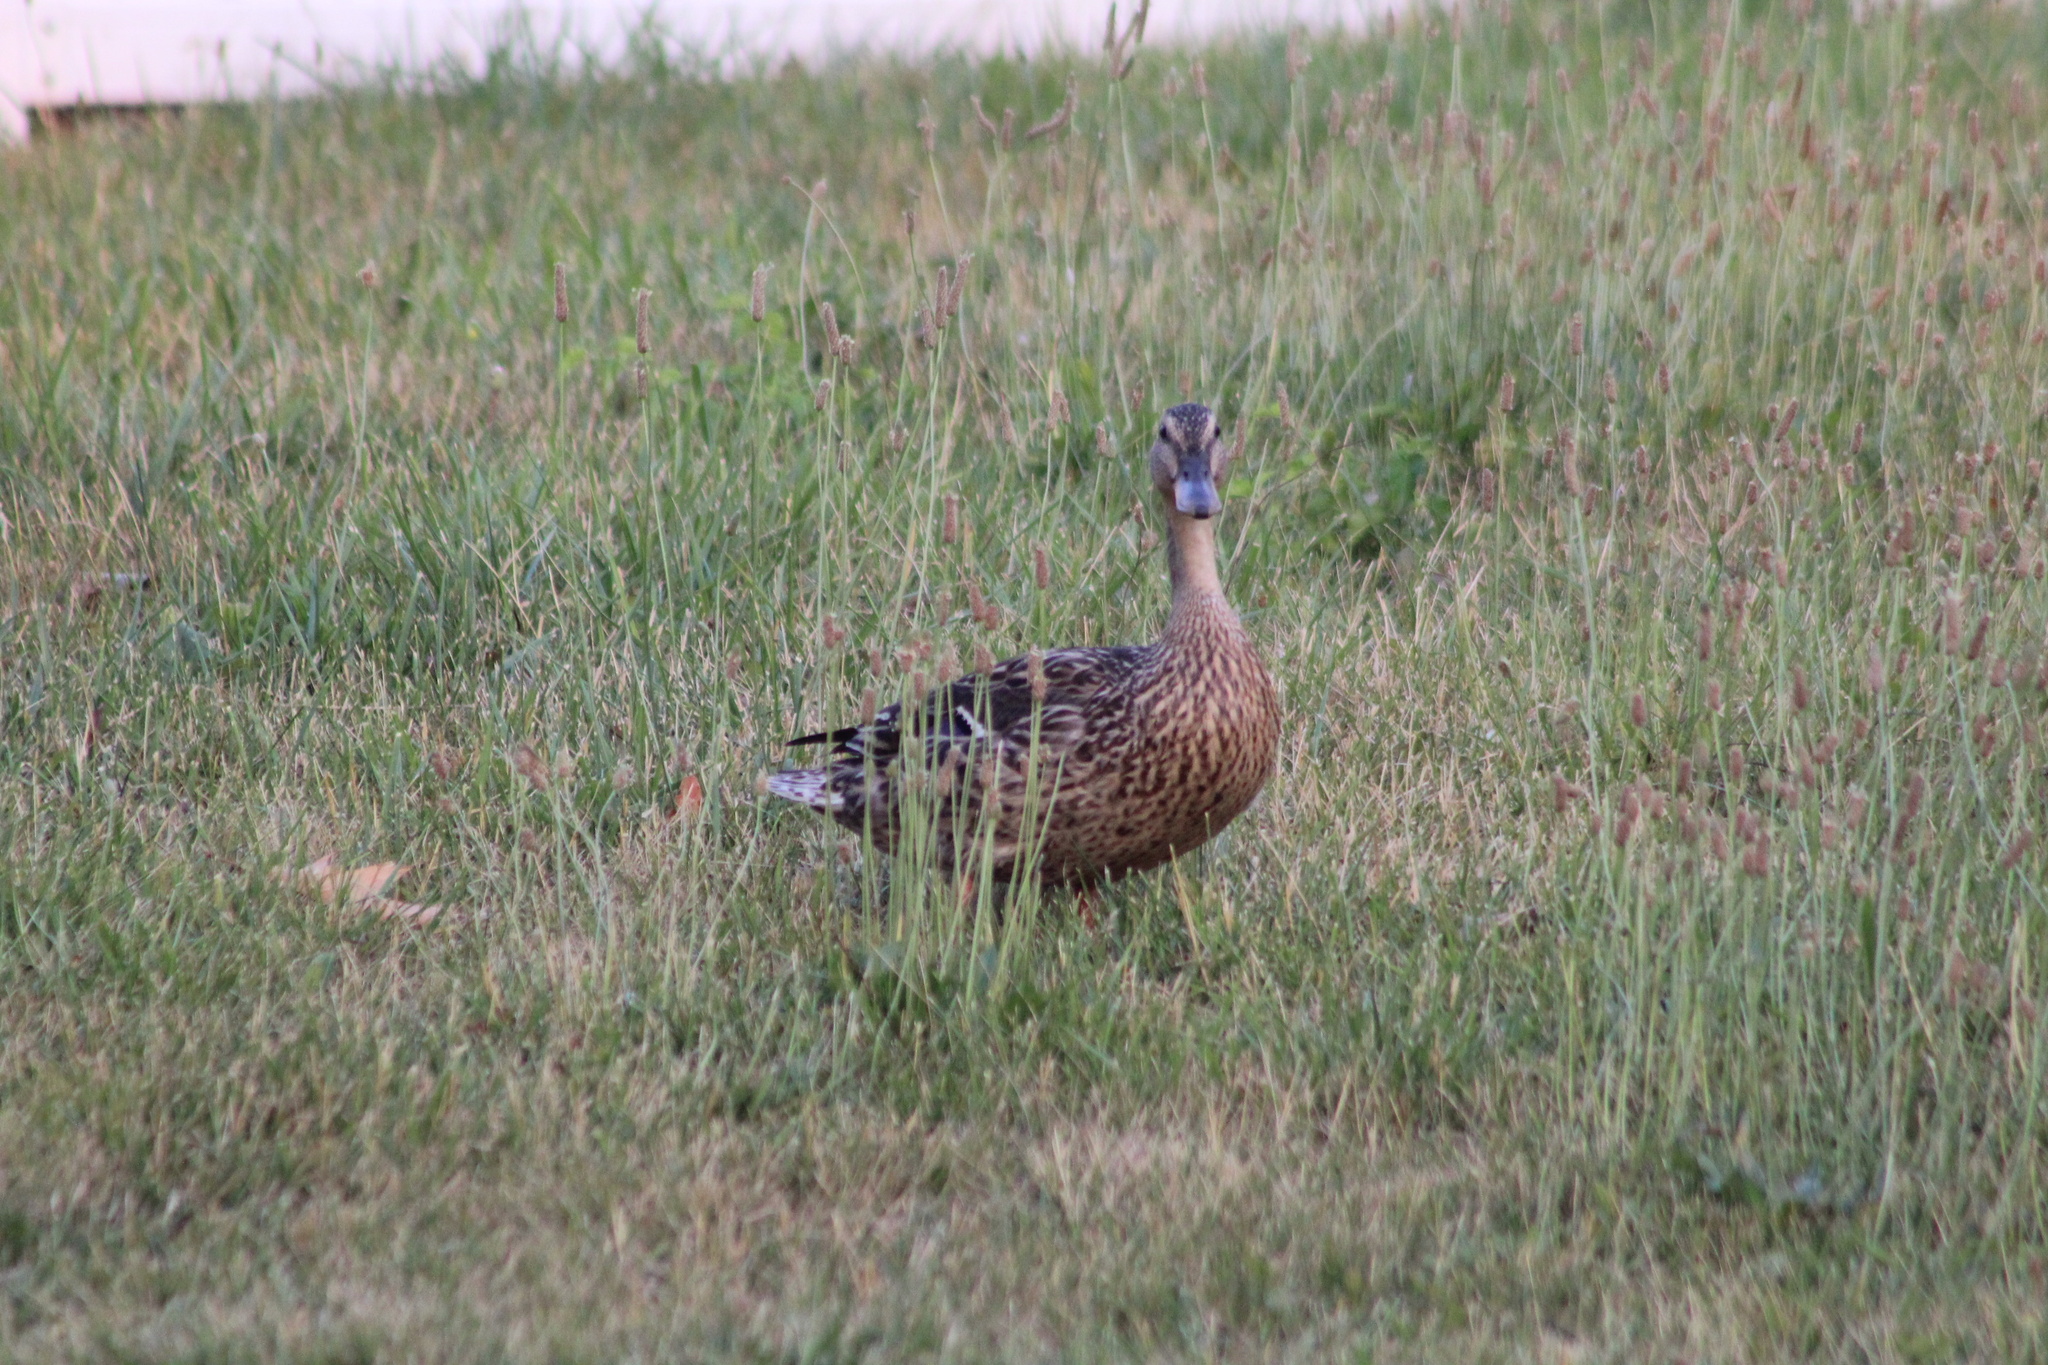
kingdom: Animalia
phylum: Chordata
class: Aves
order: Anseriformes
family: Anatidae
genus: Anas
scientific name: Anas platyrhynchos
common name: Mallard
